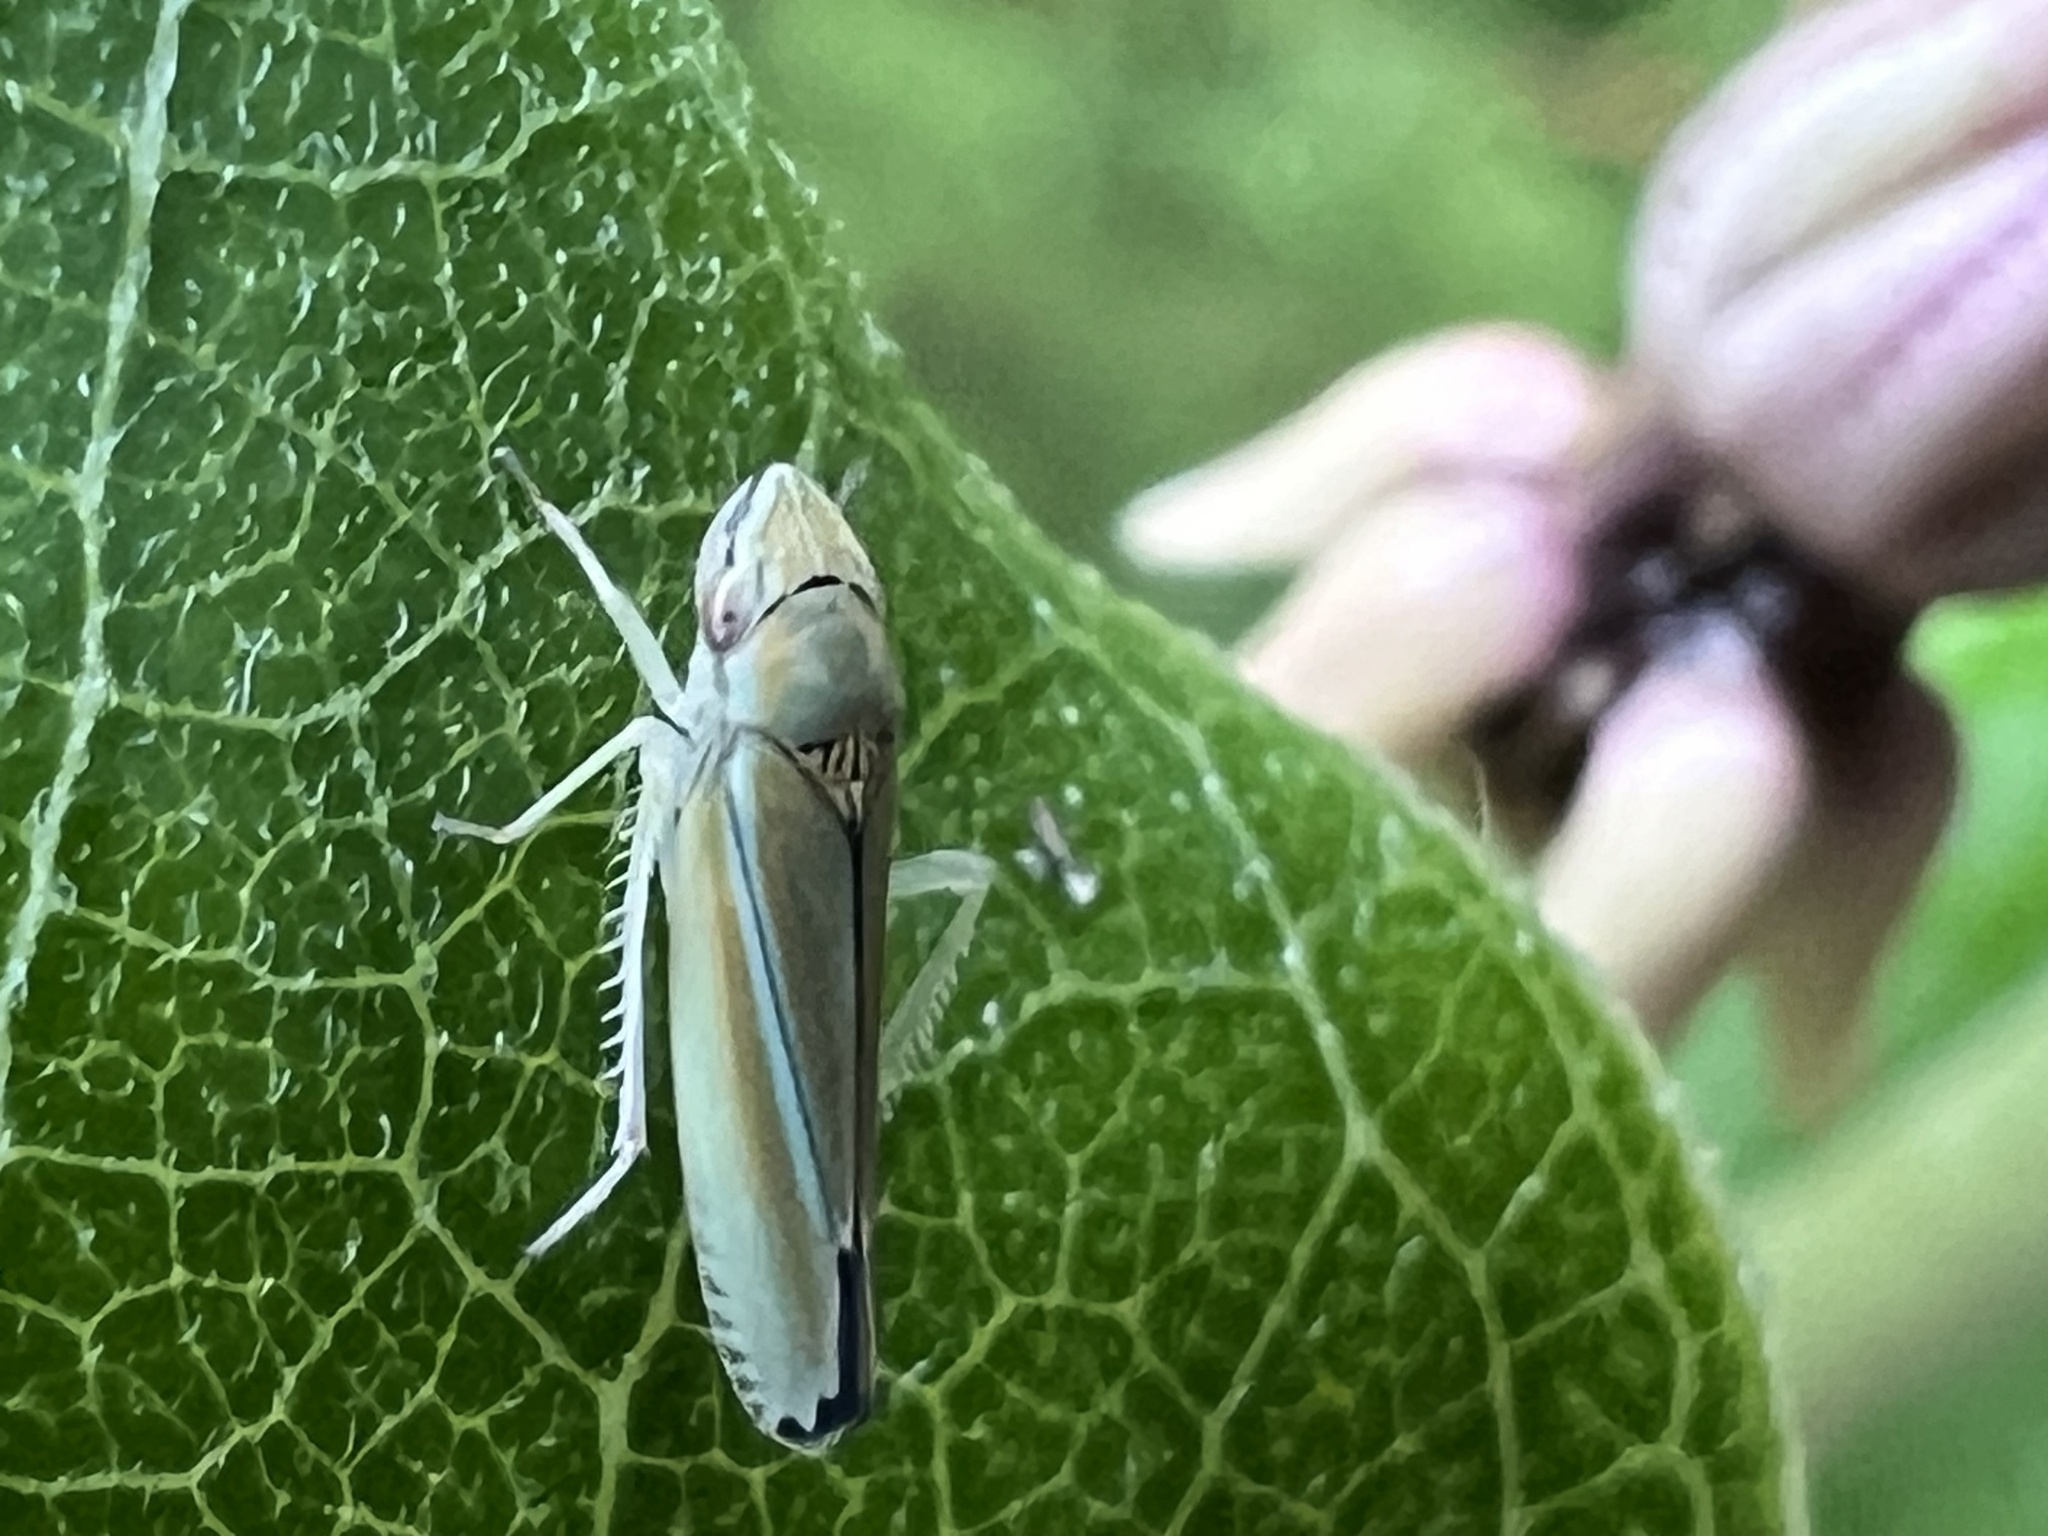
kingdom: Animalia
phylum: Arthropoda
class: Insecta
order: Hemiptera
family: Cicadellidae
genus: Graphocephala
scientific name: Graphocephala versuta
